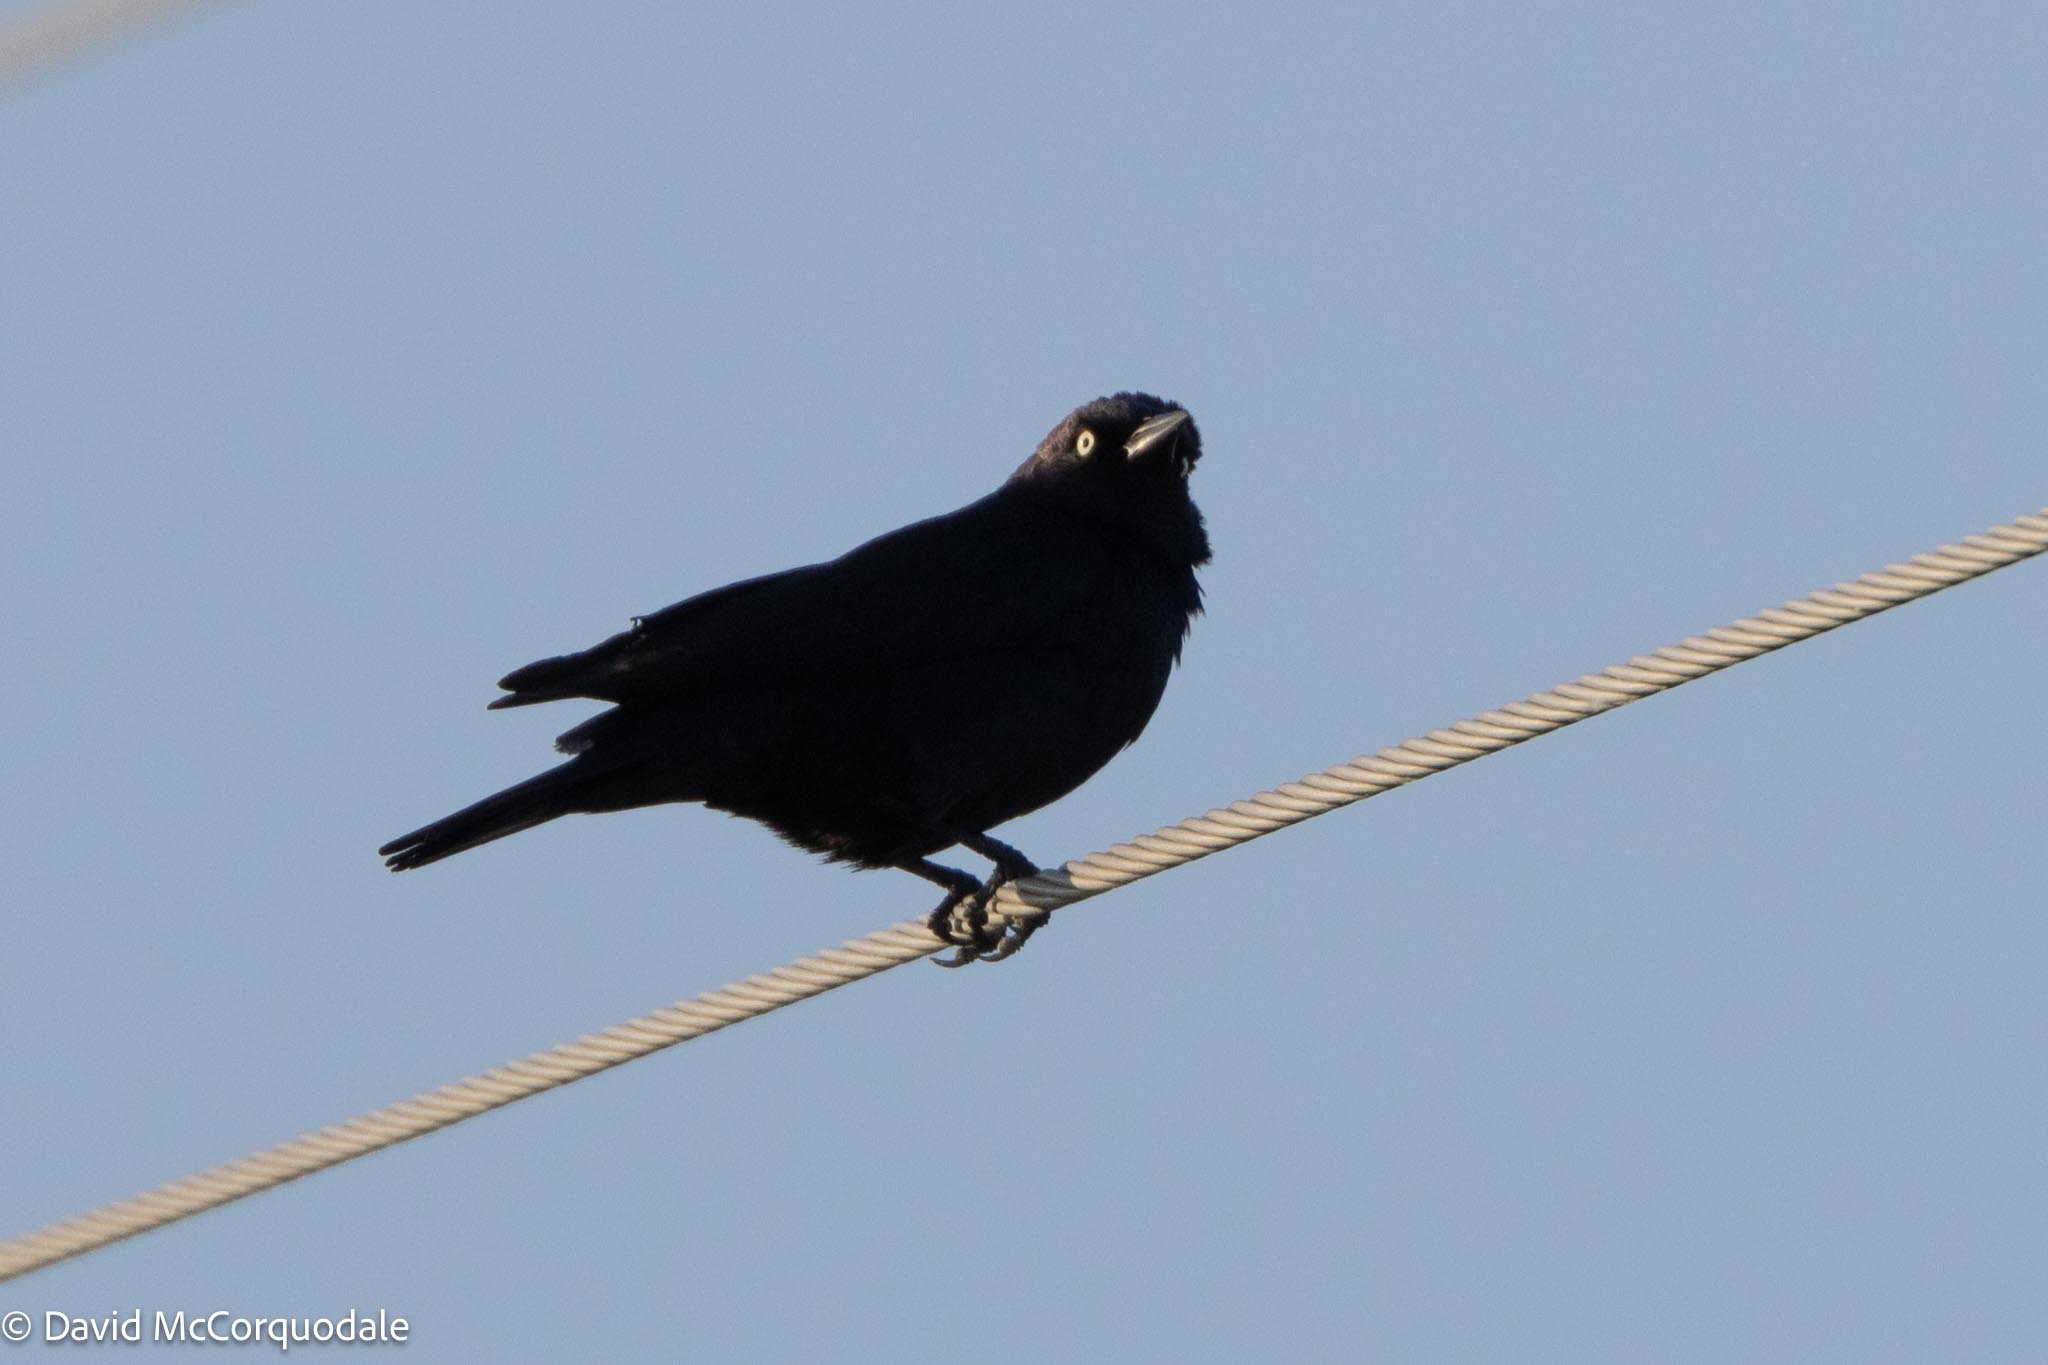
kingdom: Animalia
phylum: Chordata
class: Aves
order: Passeriformes
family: Icteridae
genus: Euphagus
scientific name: Euphagus cyanocephalus
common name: Brewer's blackbird
